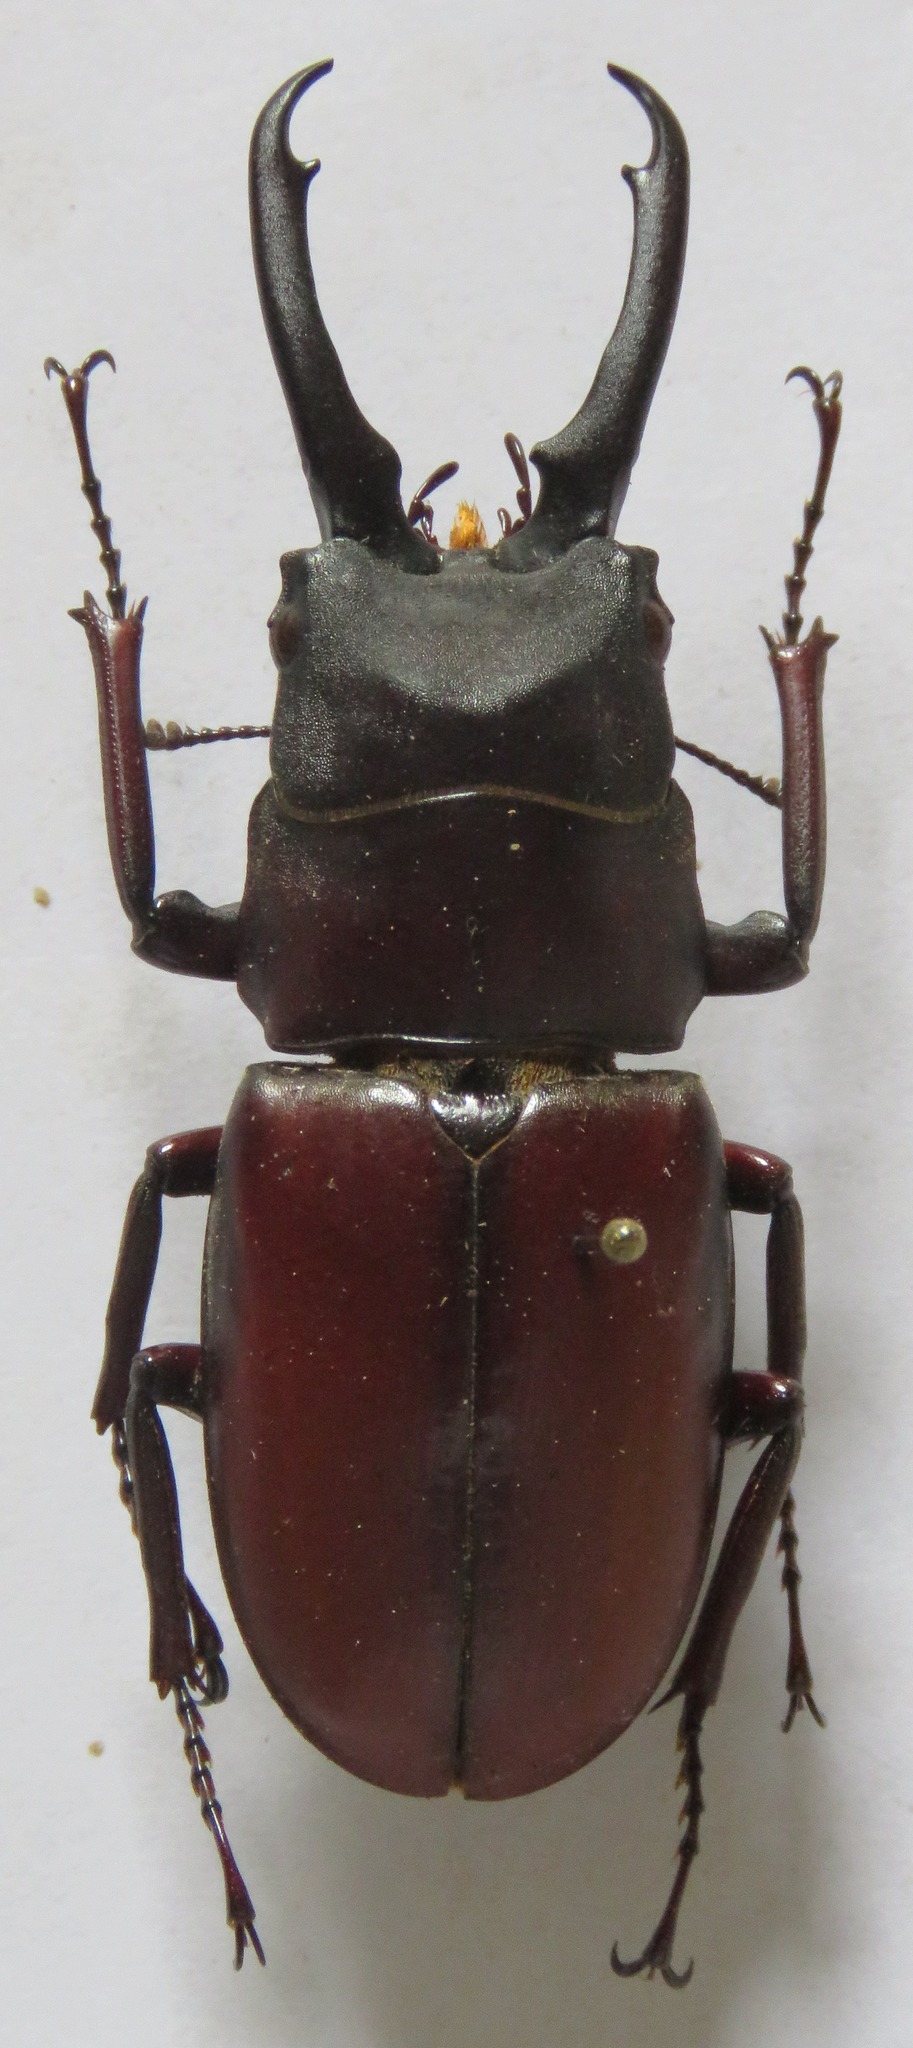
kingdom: Animalia
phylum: Arthropoda
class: Insecta
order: Coleoptera
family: Lucanidae
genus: Prosopocoilus
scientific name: Prosopocoilus myrmecoleon
